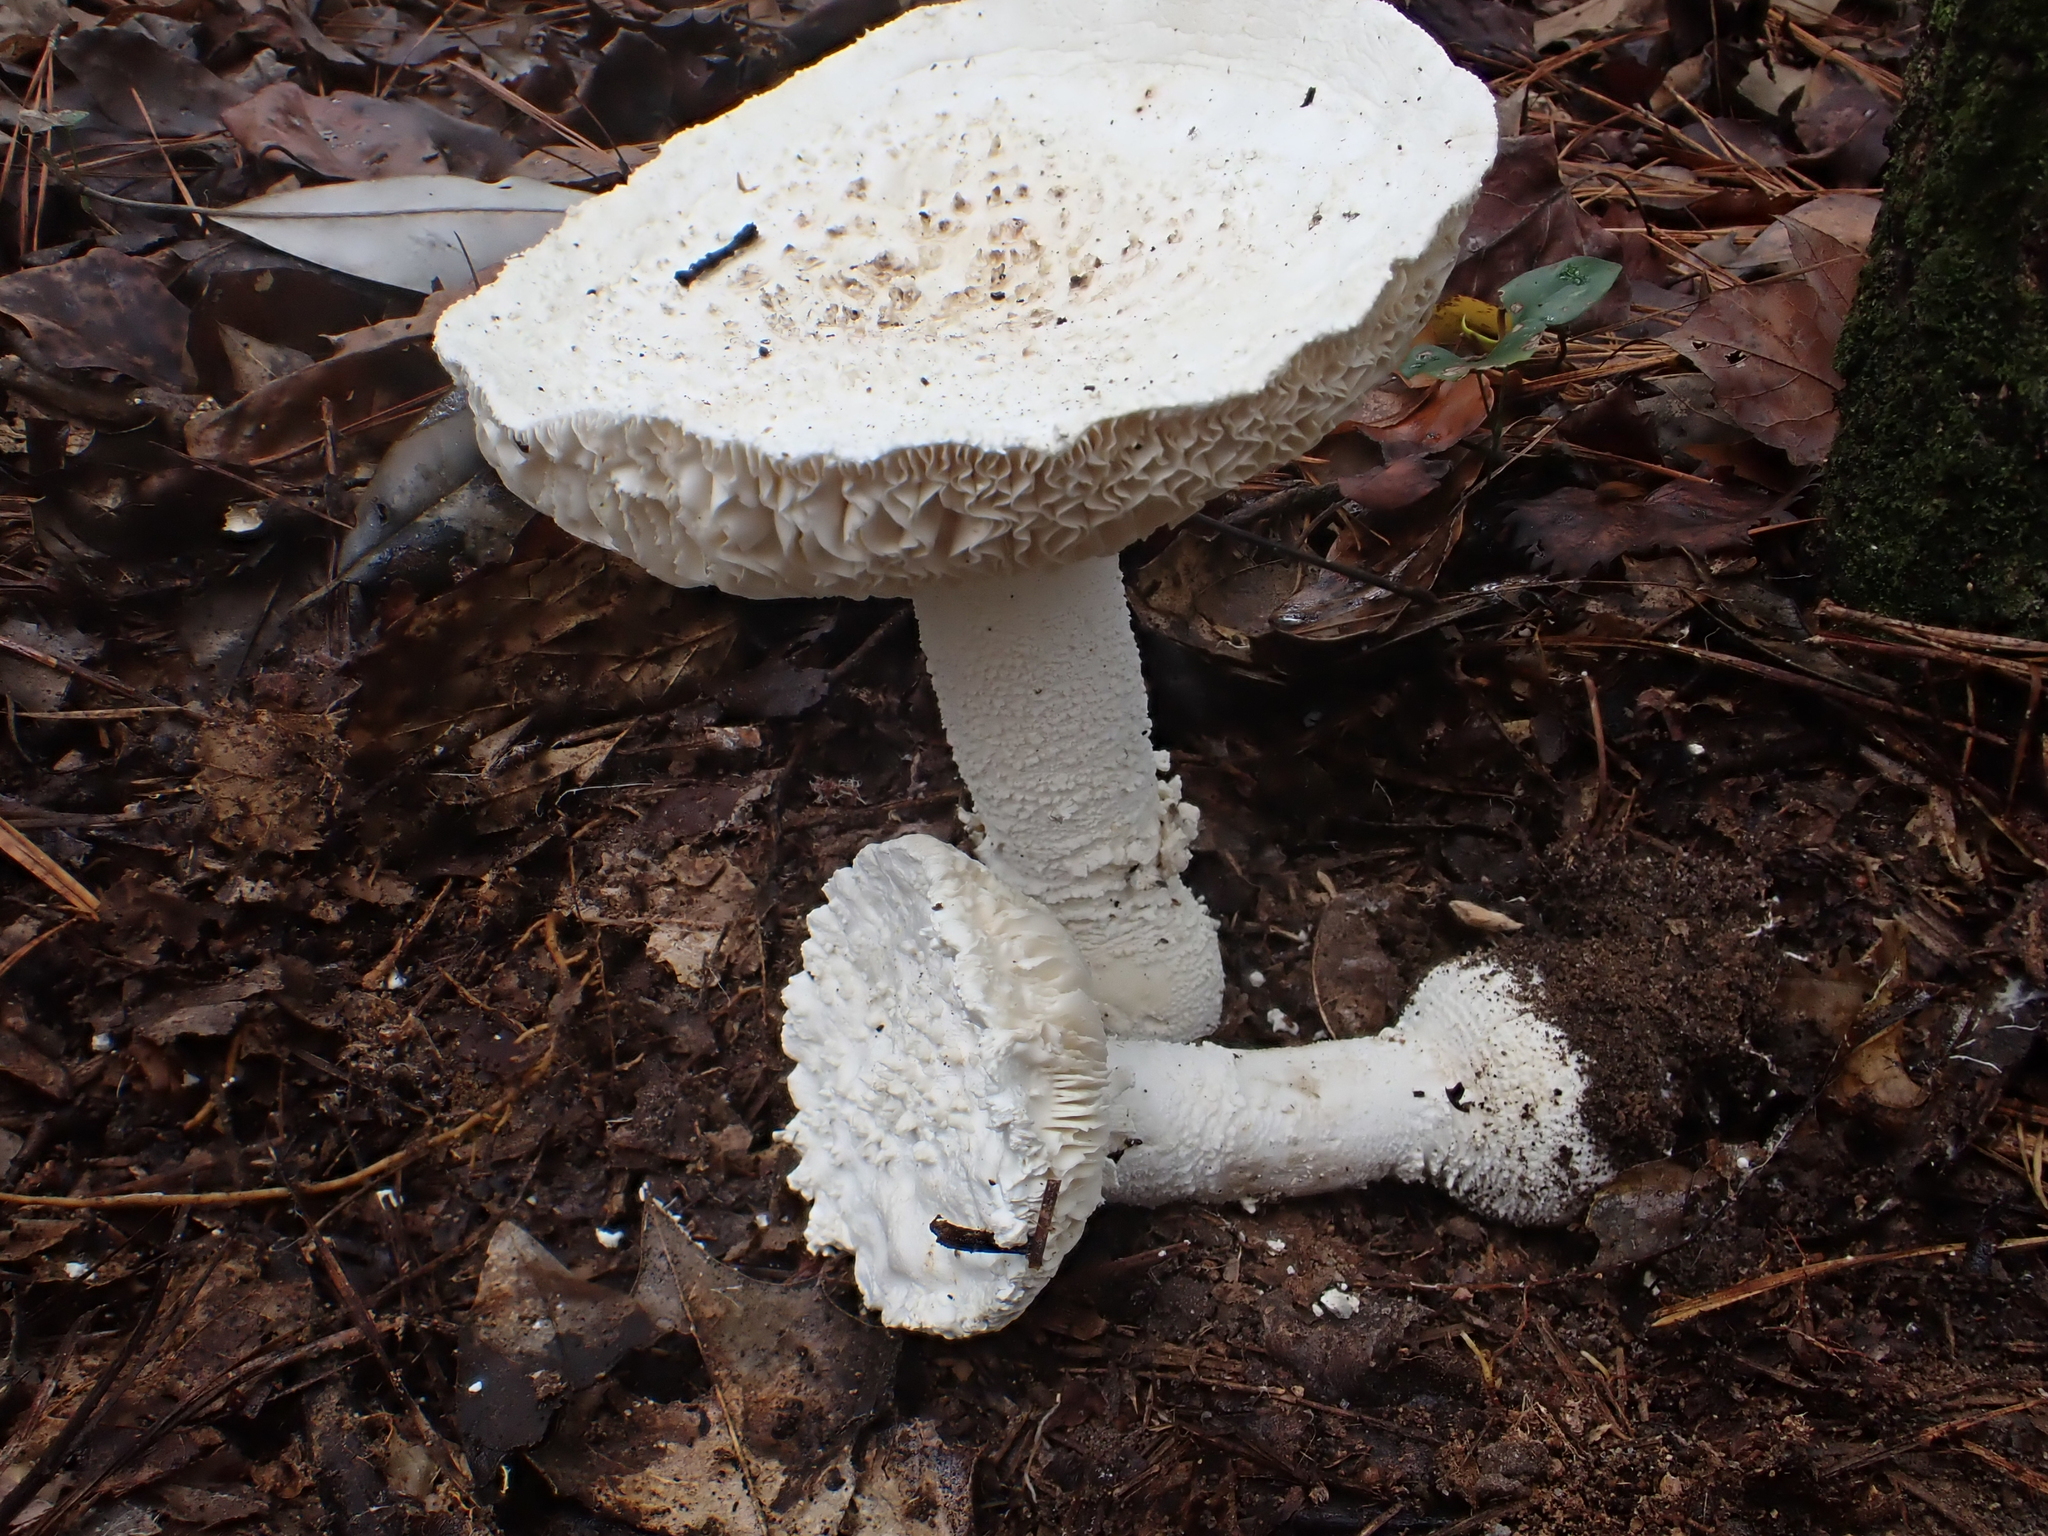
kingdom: Fungi
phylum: Basidiomycota
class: Agaricomycetes
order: Agaricales
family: Amanitaceae
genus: Amanita
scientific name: Amanita polypyramis
